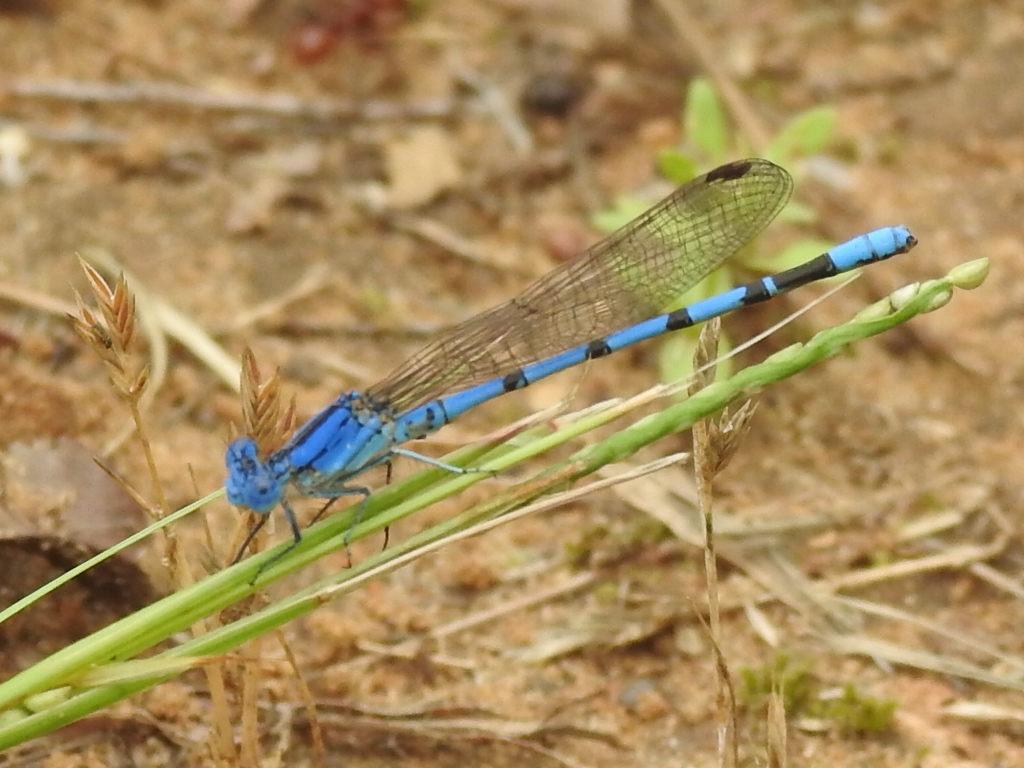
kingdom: Animalia
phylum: Arthropoda
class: Insecta
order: Odonata
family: Coenagrionidae
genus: Argia
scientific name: Argia nahuana
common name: Aztec dancer
